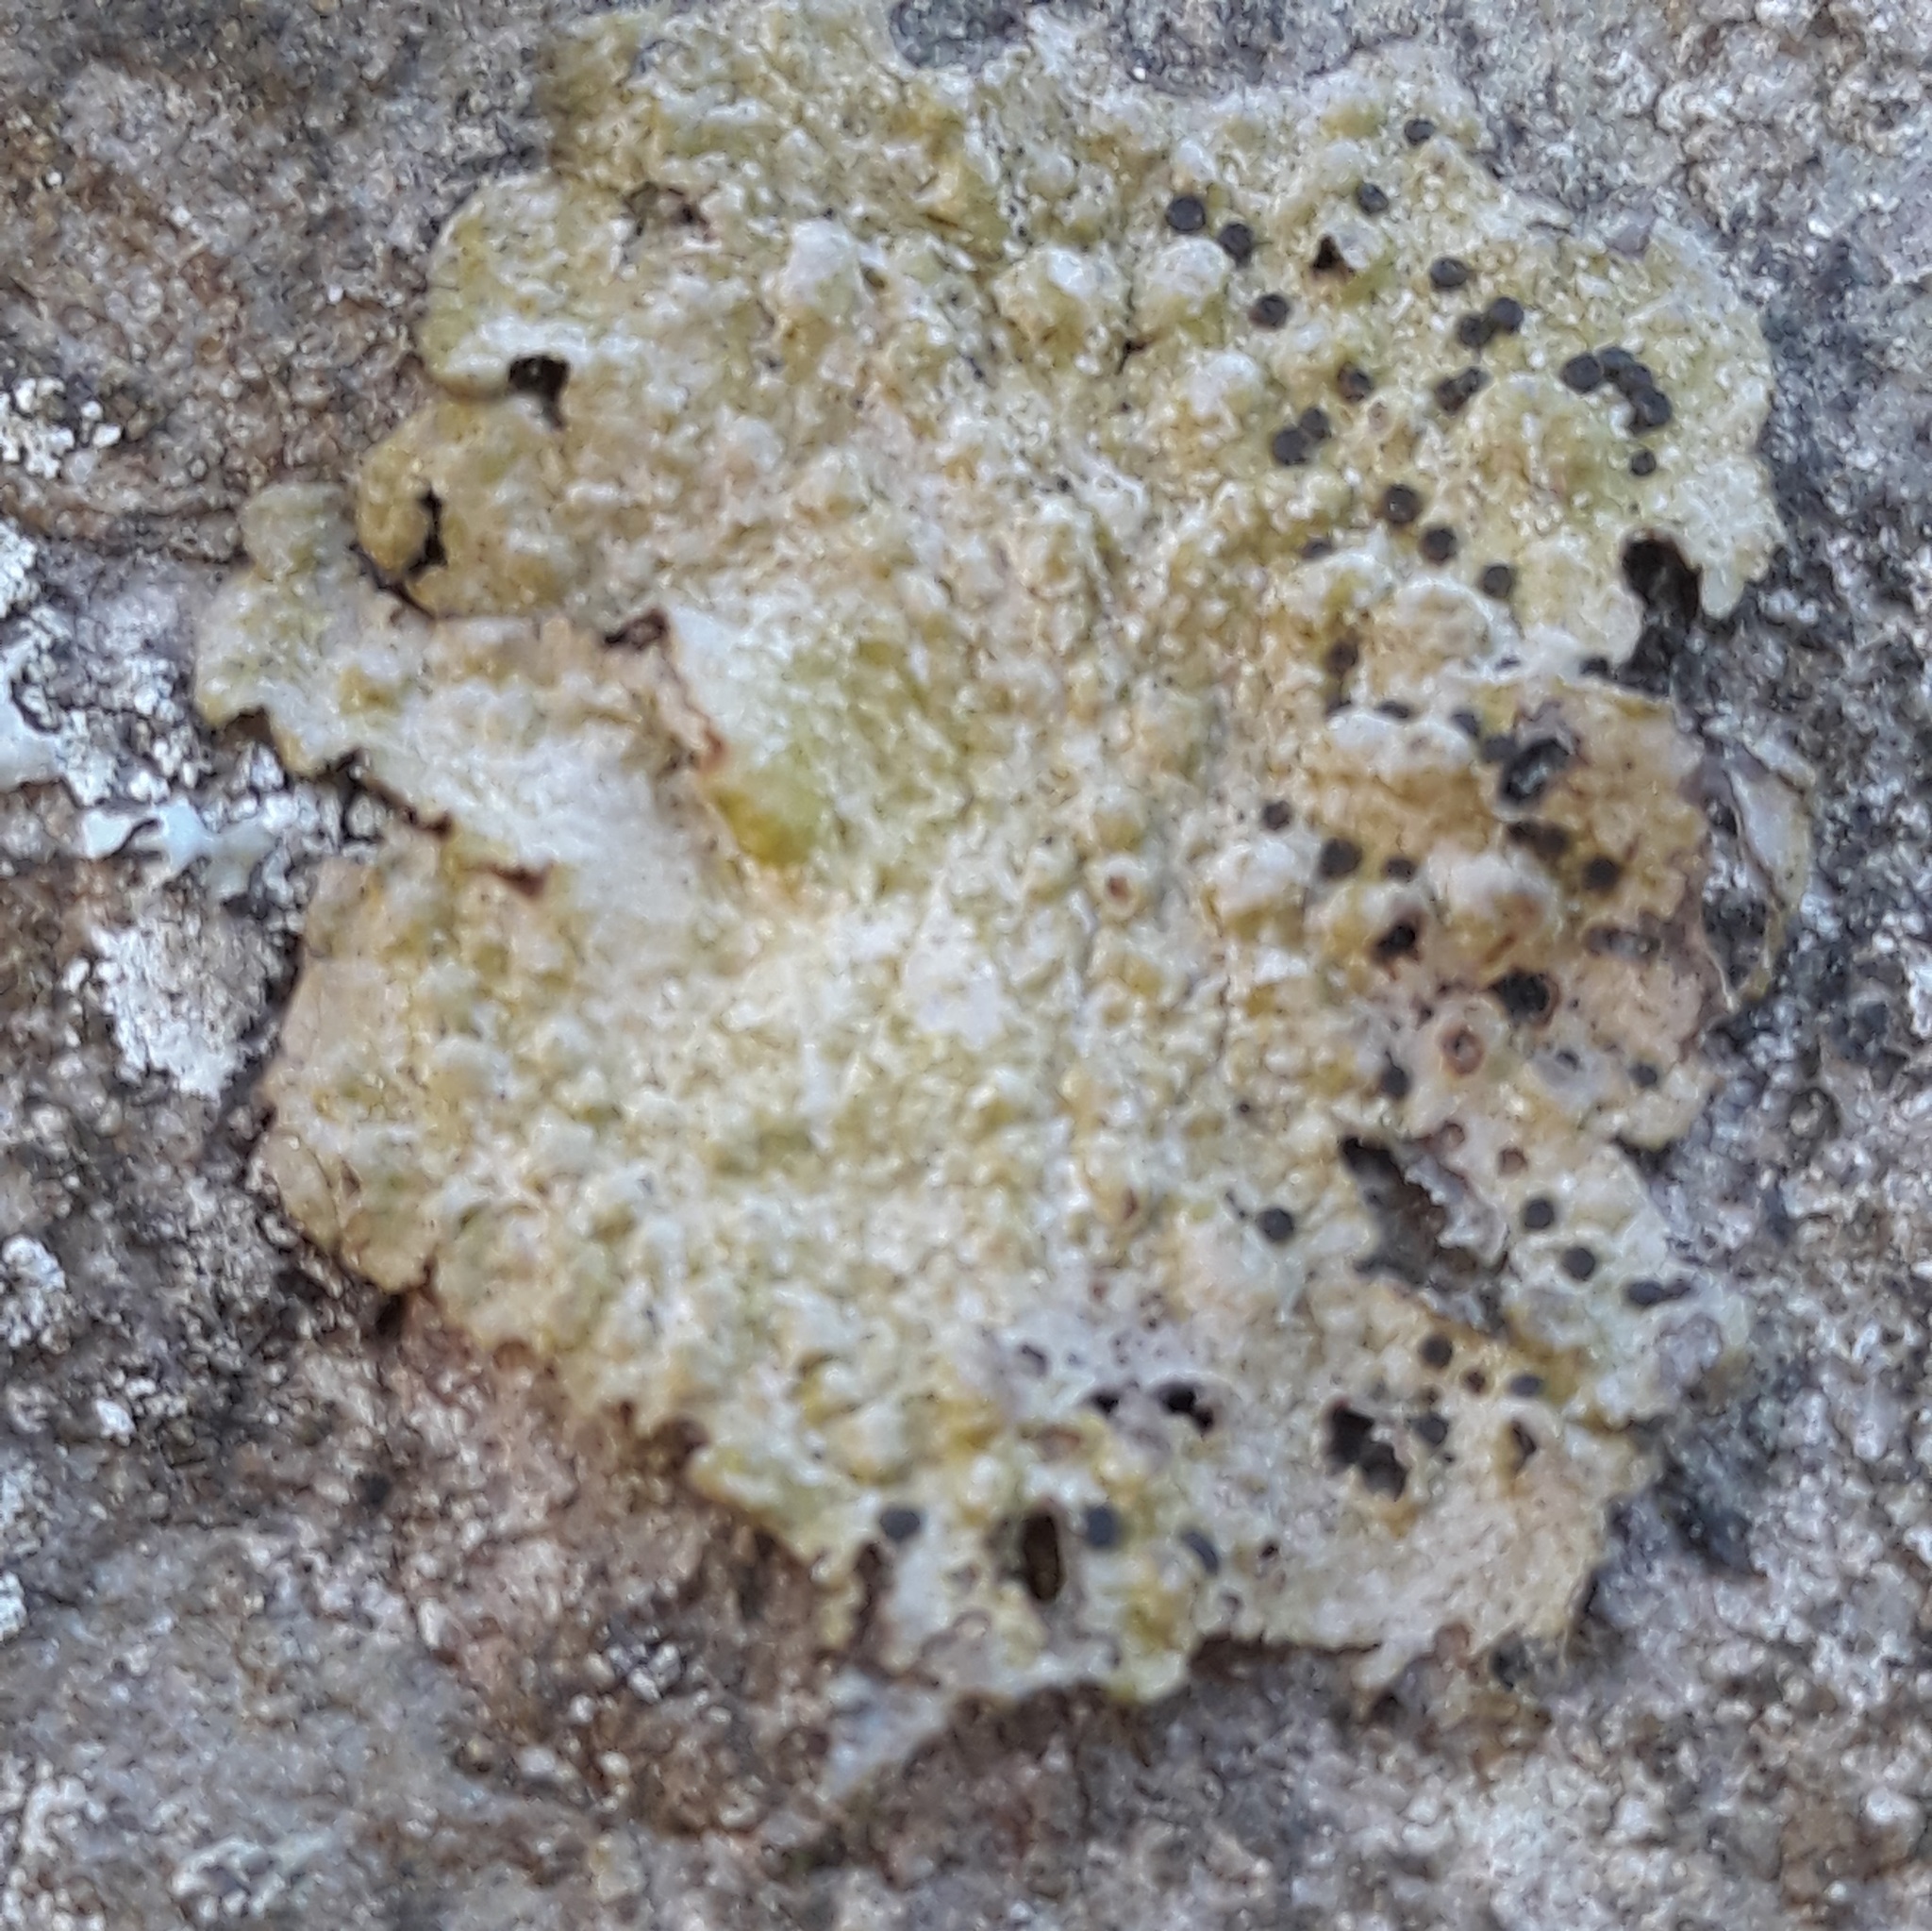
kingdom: Fungi
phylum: Ascomycota
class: Lecanoromycetes
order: Umbilicariales
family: Umbilicariaceae
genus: Lasallia
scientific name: Lasallia papulosa
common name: Common toadskin lichen
